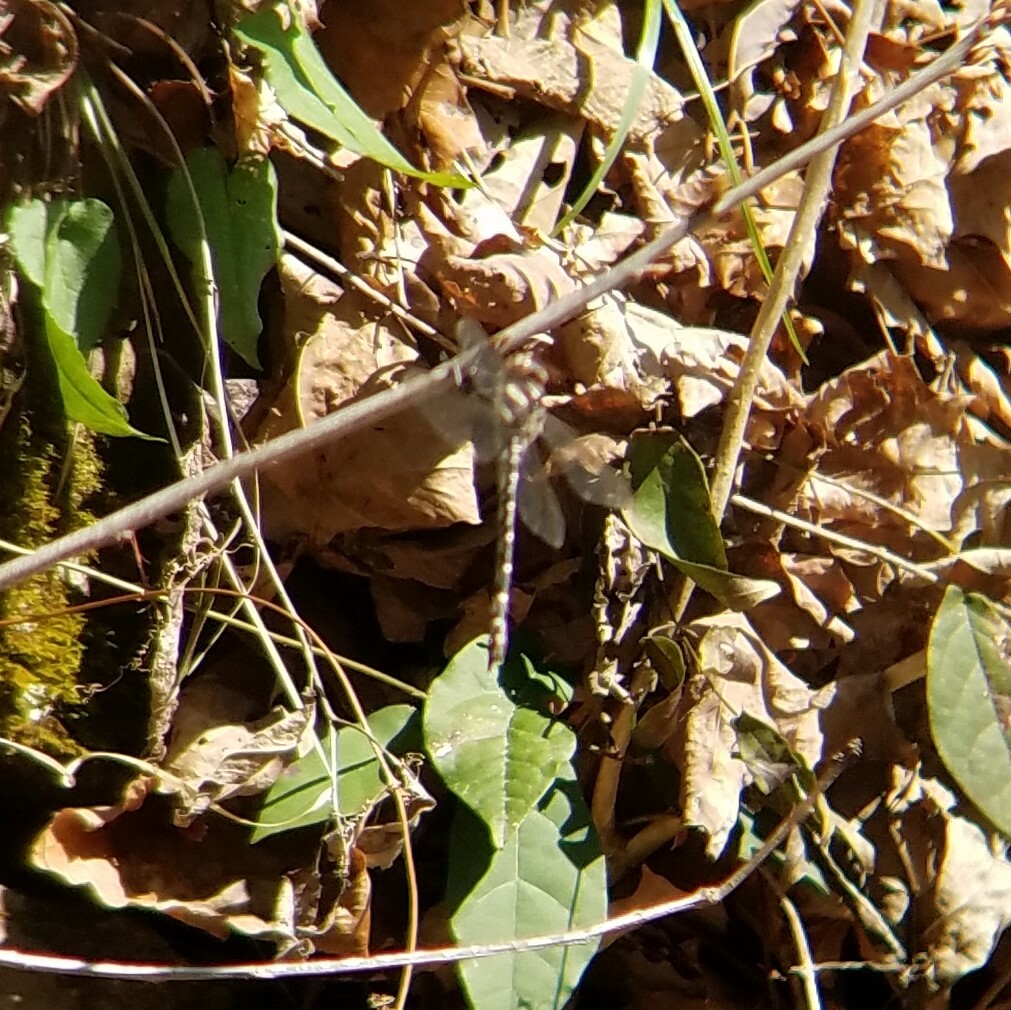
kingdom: Animalia
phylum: Arthropoda
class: Insecta
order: Odonata
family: Cordulegastridae
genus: Cordulegaster
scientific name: Cordulegaster maculata
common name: Twin-spotted spiketail
